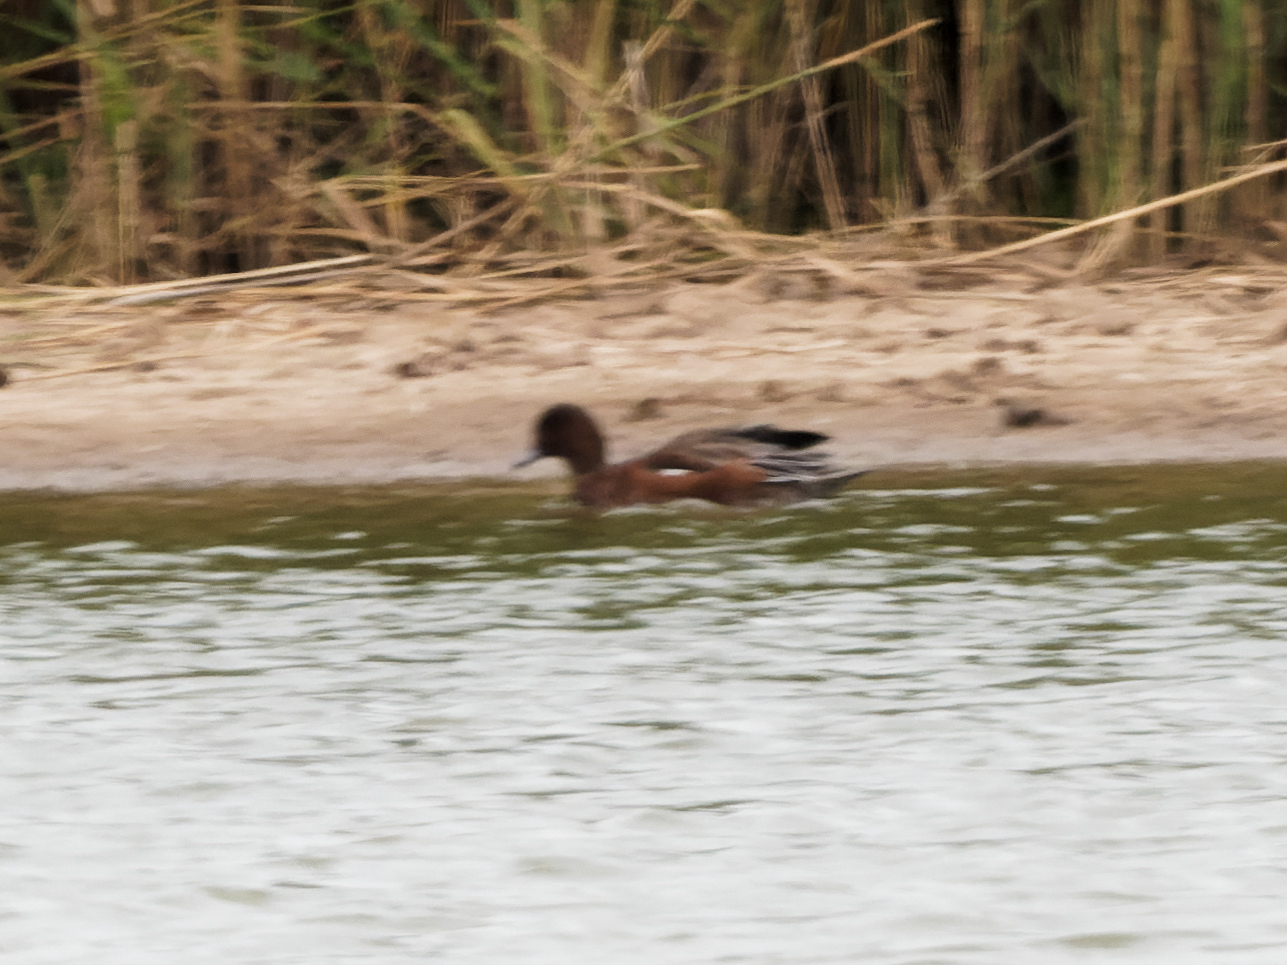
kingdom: Animalia
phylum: Chordata
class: Aves
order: Anseriformes
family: Anatidae
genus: Mareca
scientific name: Mareca penelope
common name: Eurasian wigeon
